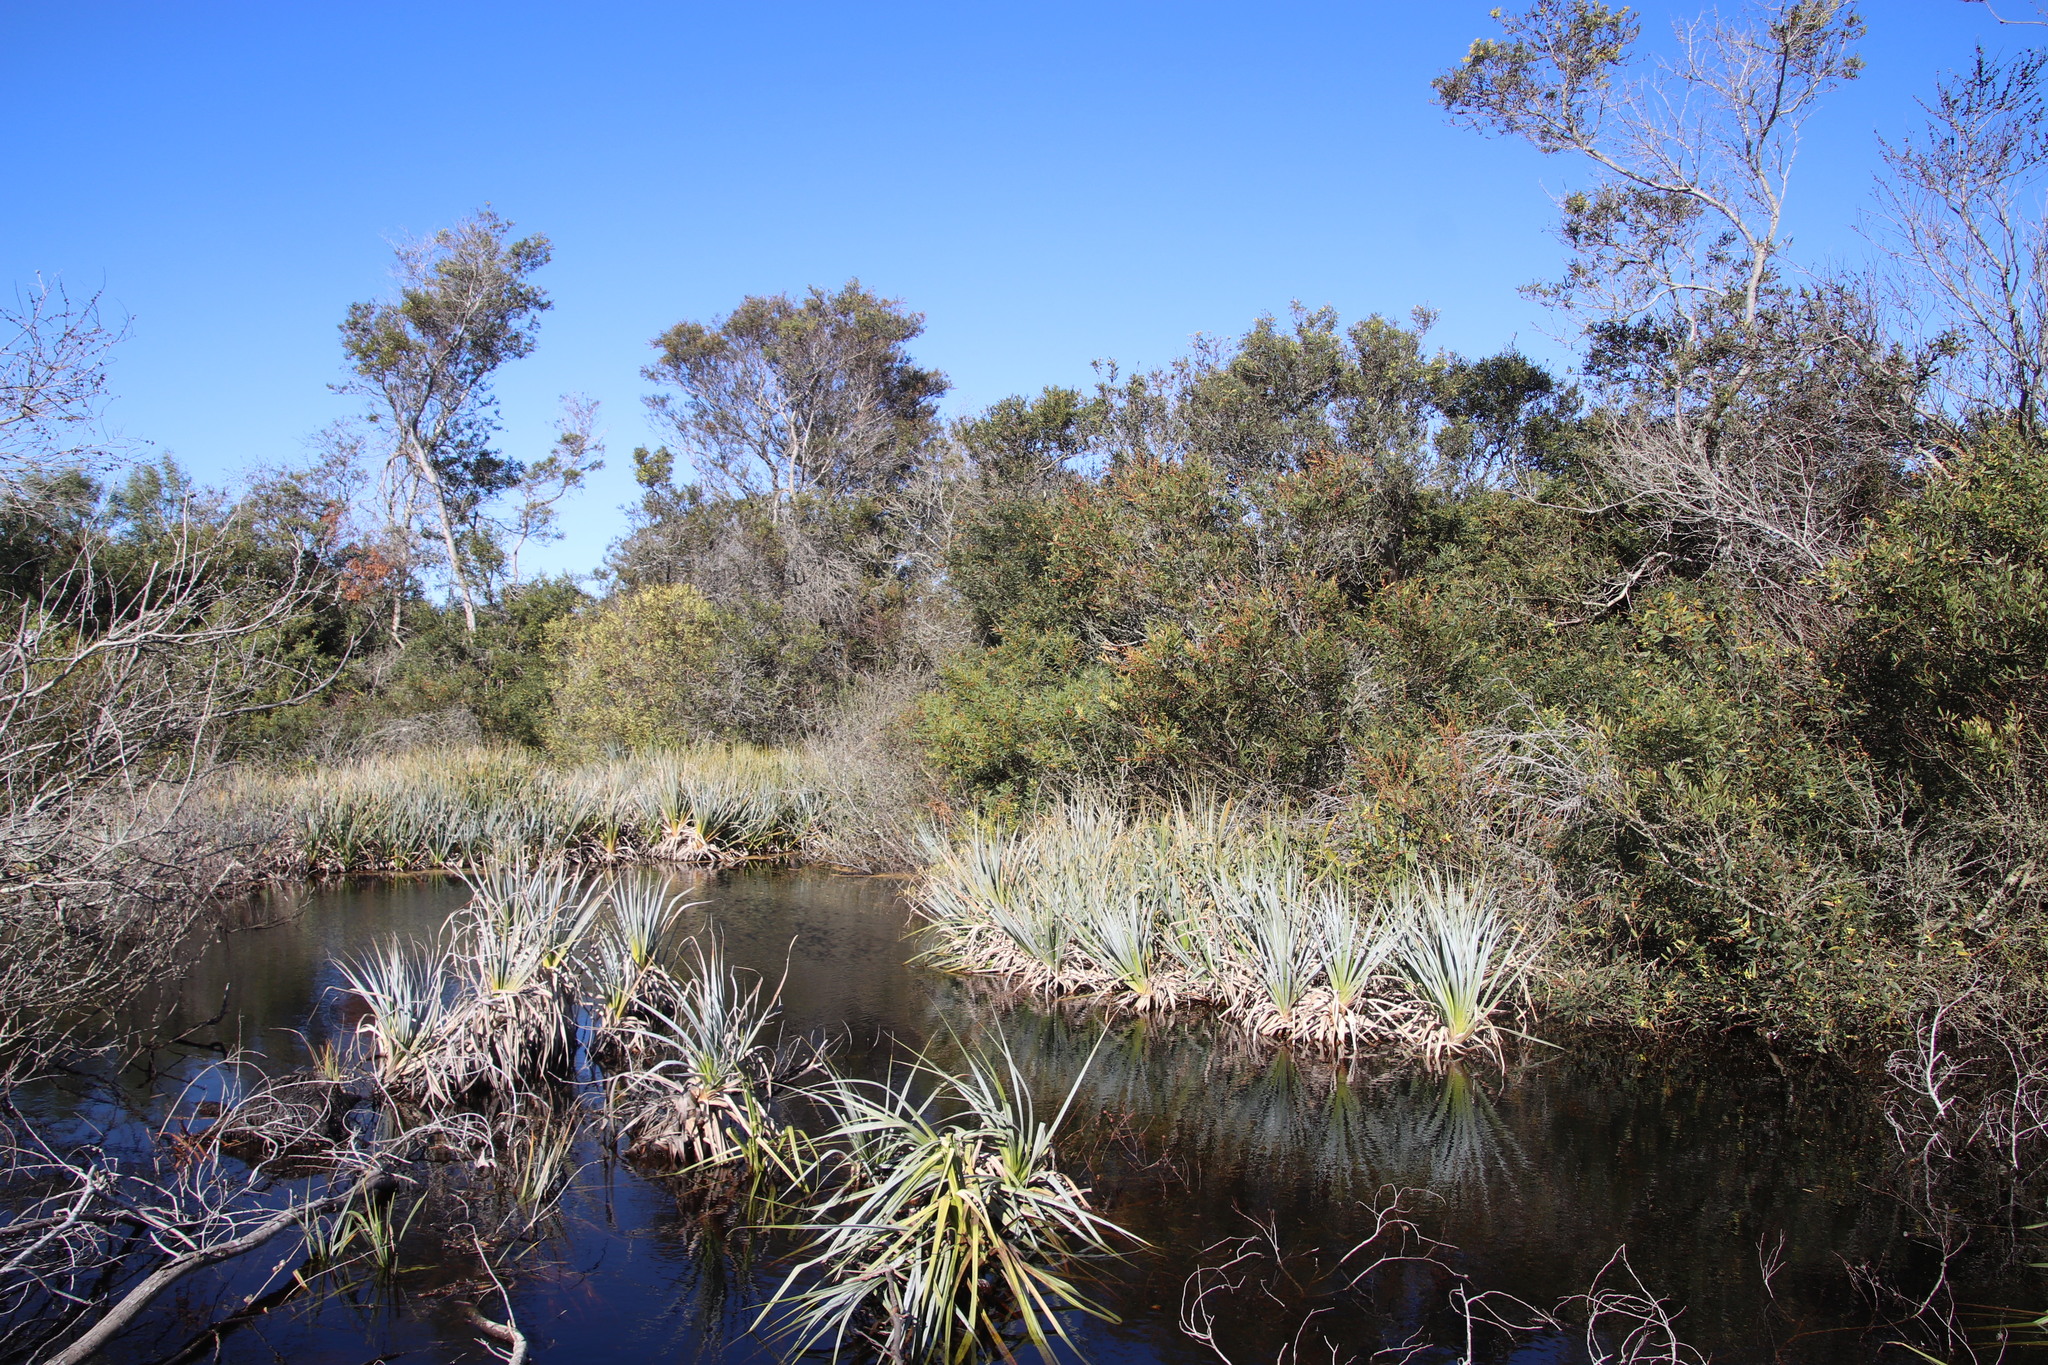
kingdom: Plantae
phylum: Tracheophyta
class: Liliopsida
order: Poales
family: Thurniaceae
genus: Prionium
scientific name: Prionium serratum
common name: Palmiet
